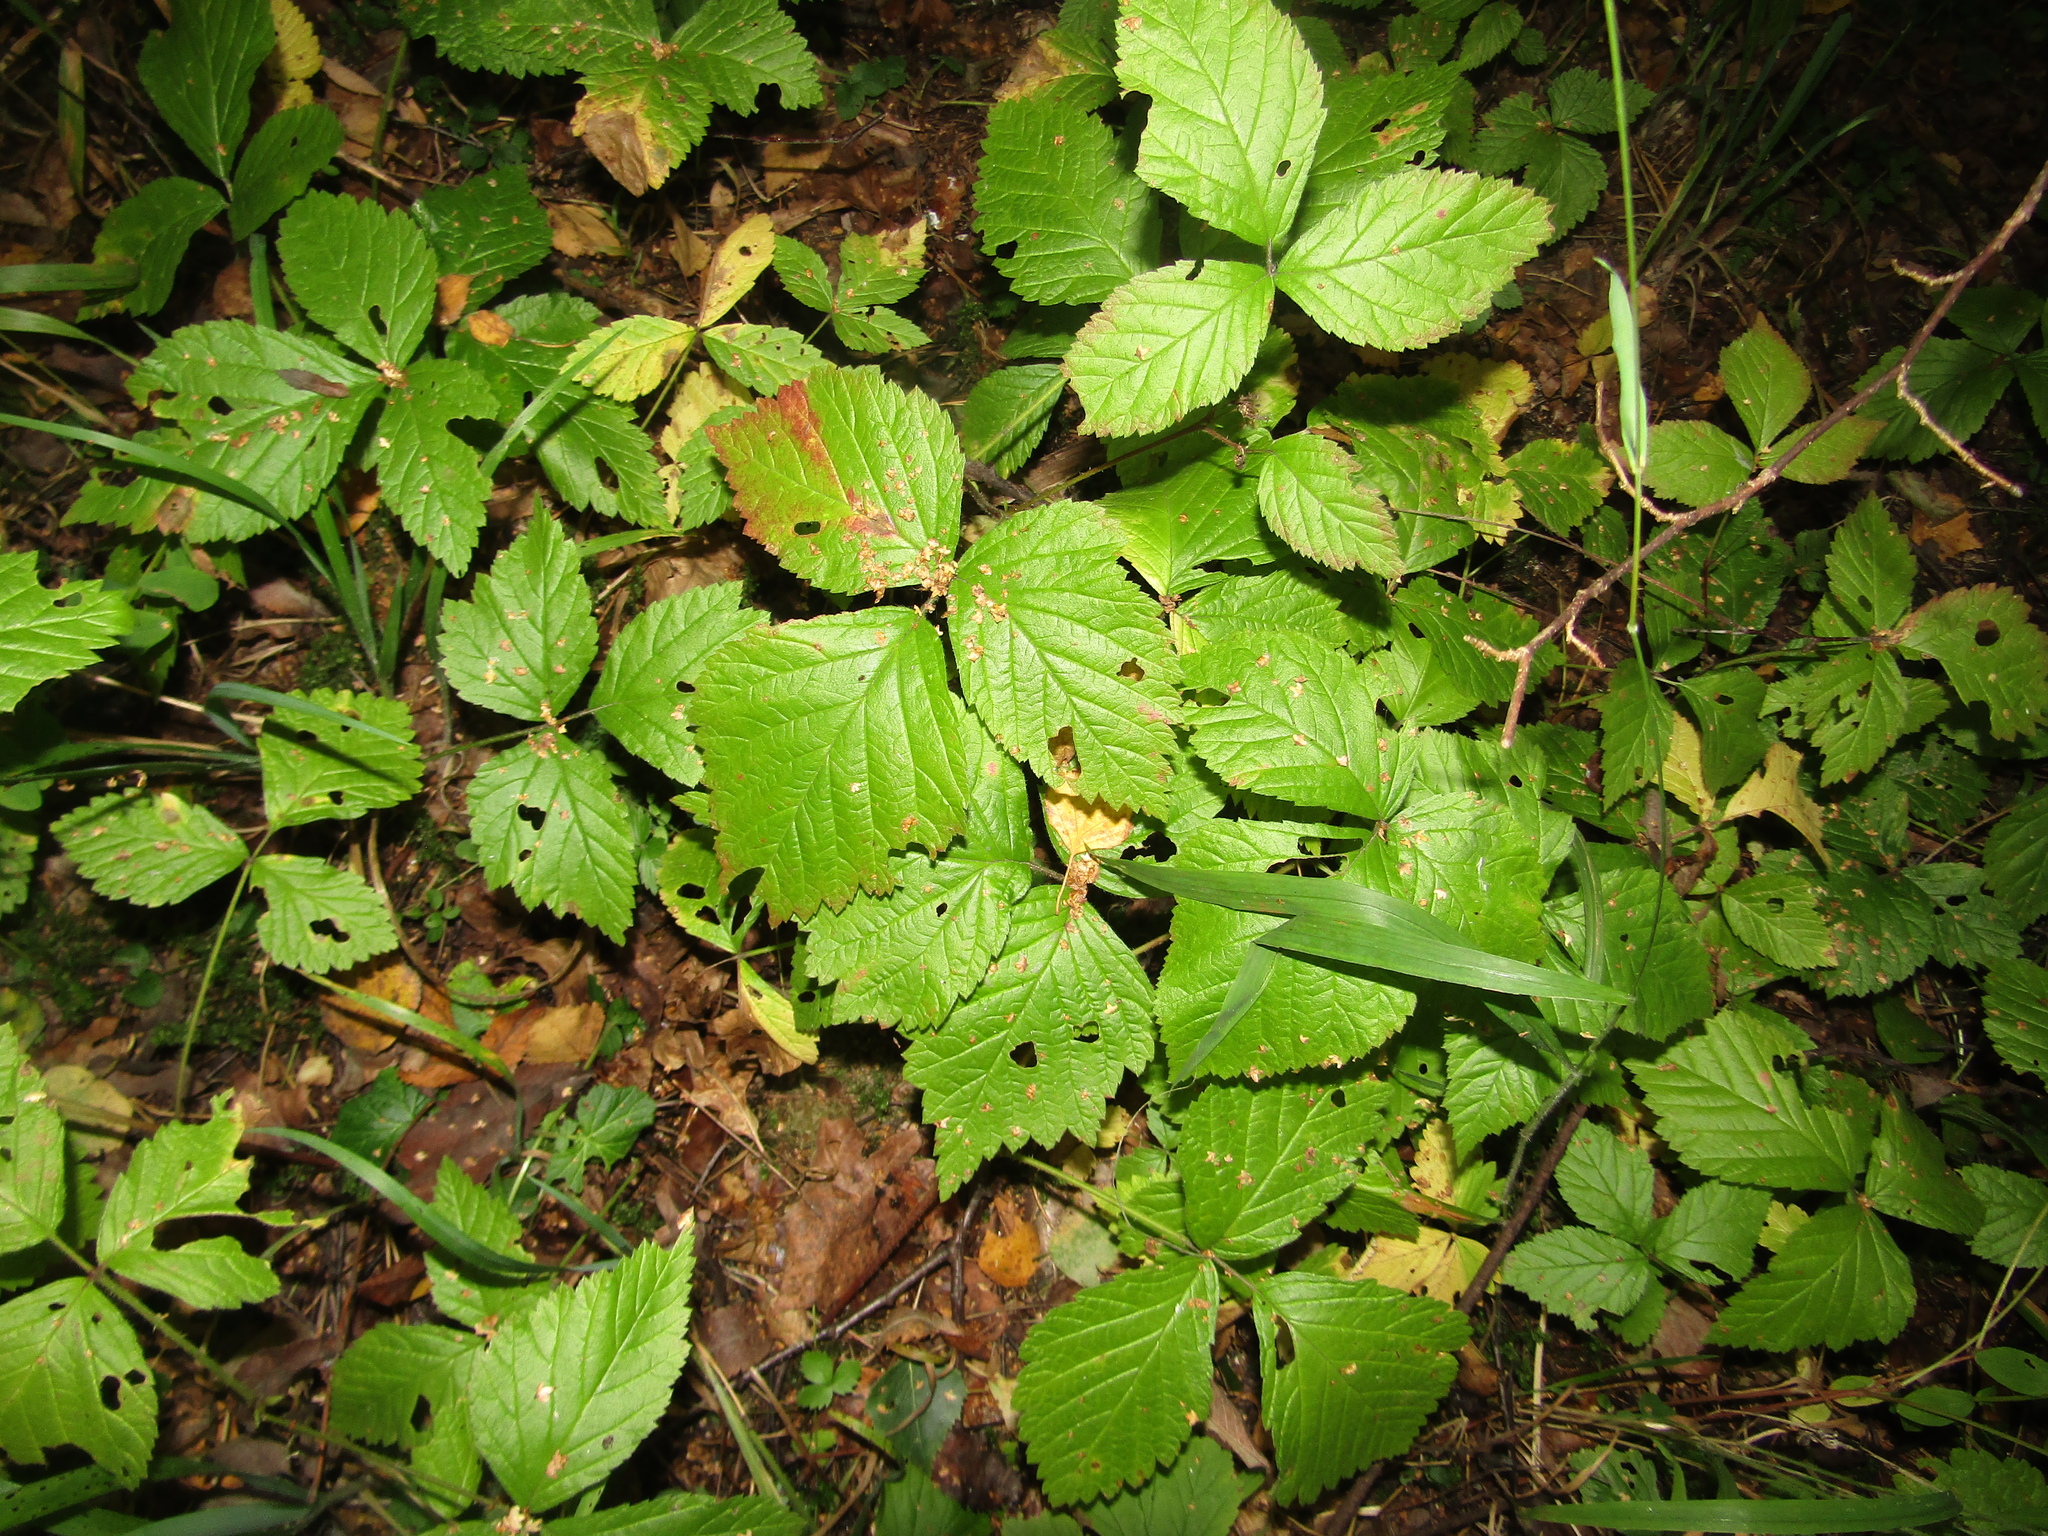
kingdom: Plantae
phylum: Tracheophyta
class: Magnoliopsida
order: Rosales
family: Rosaceae
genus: Rubus
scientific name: Rubus saxatilis
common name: Stone bramble
